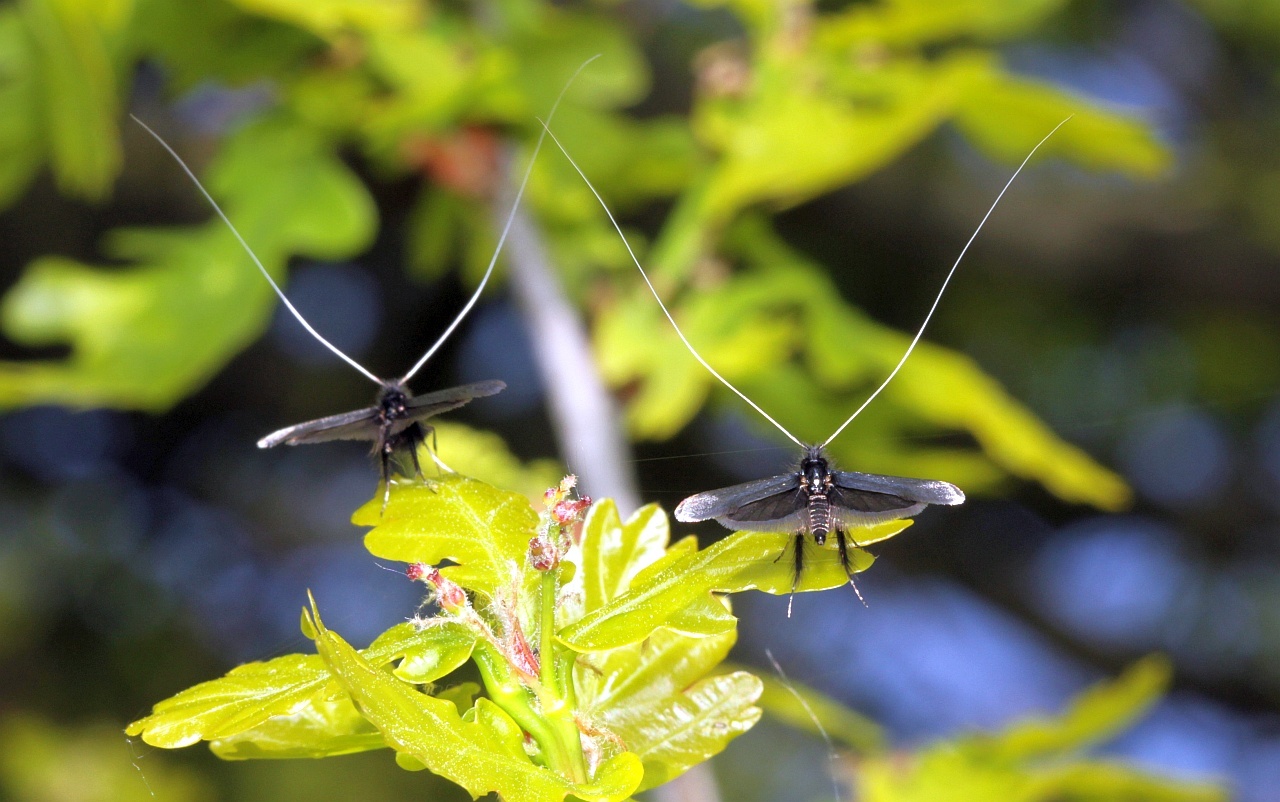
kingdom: Animalia
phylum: Arthropoda
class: Insecta
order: Lepidoptera
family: Adelidae
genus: Adela
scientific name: Adela viridella
